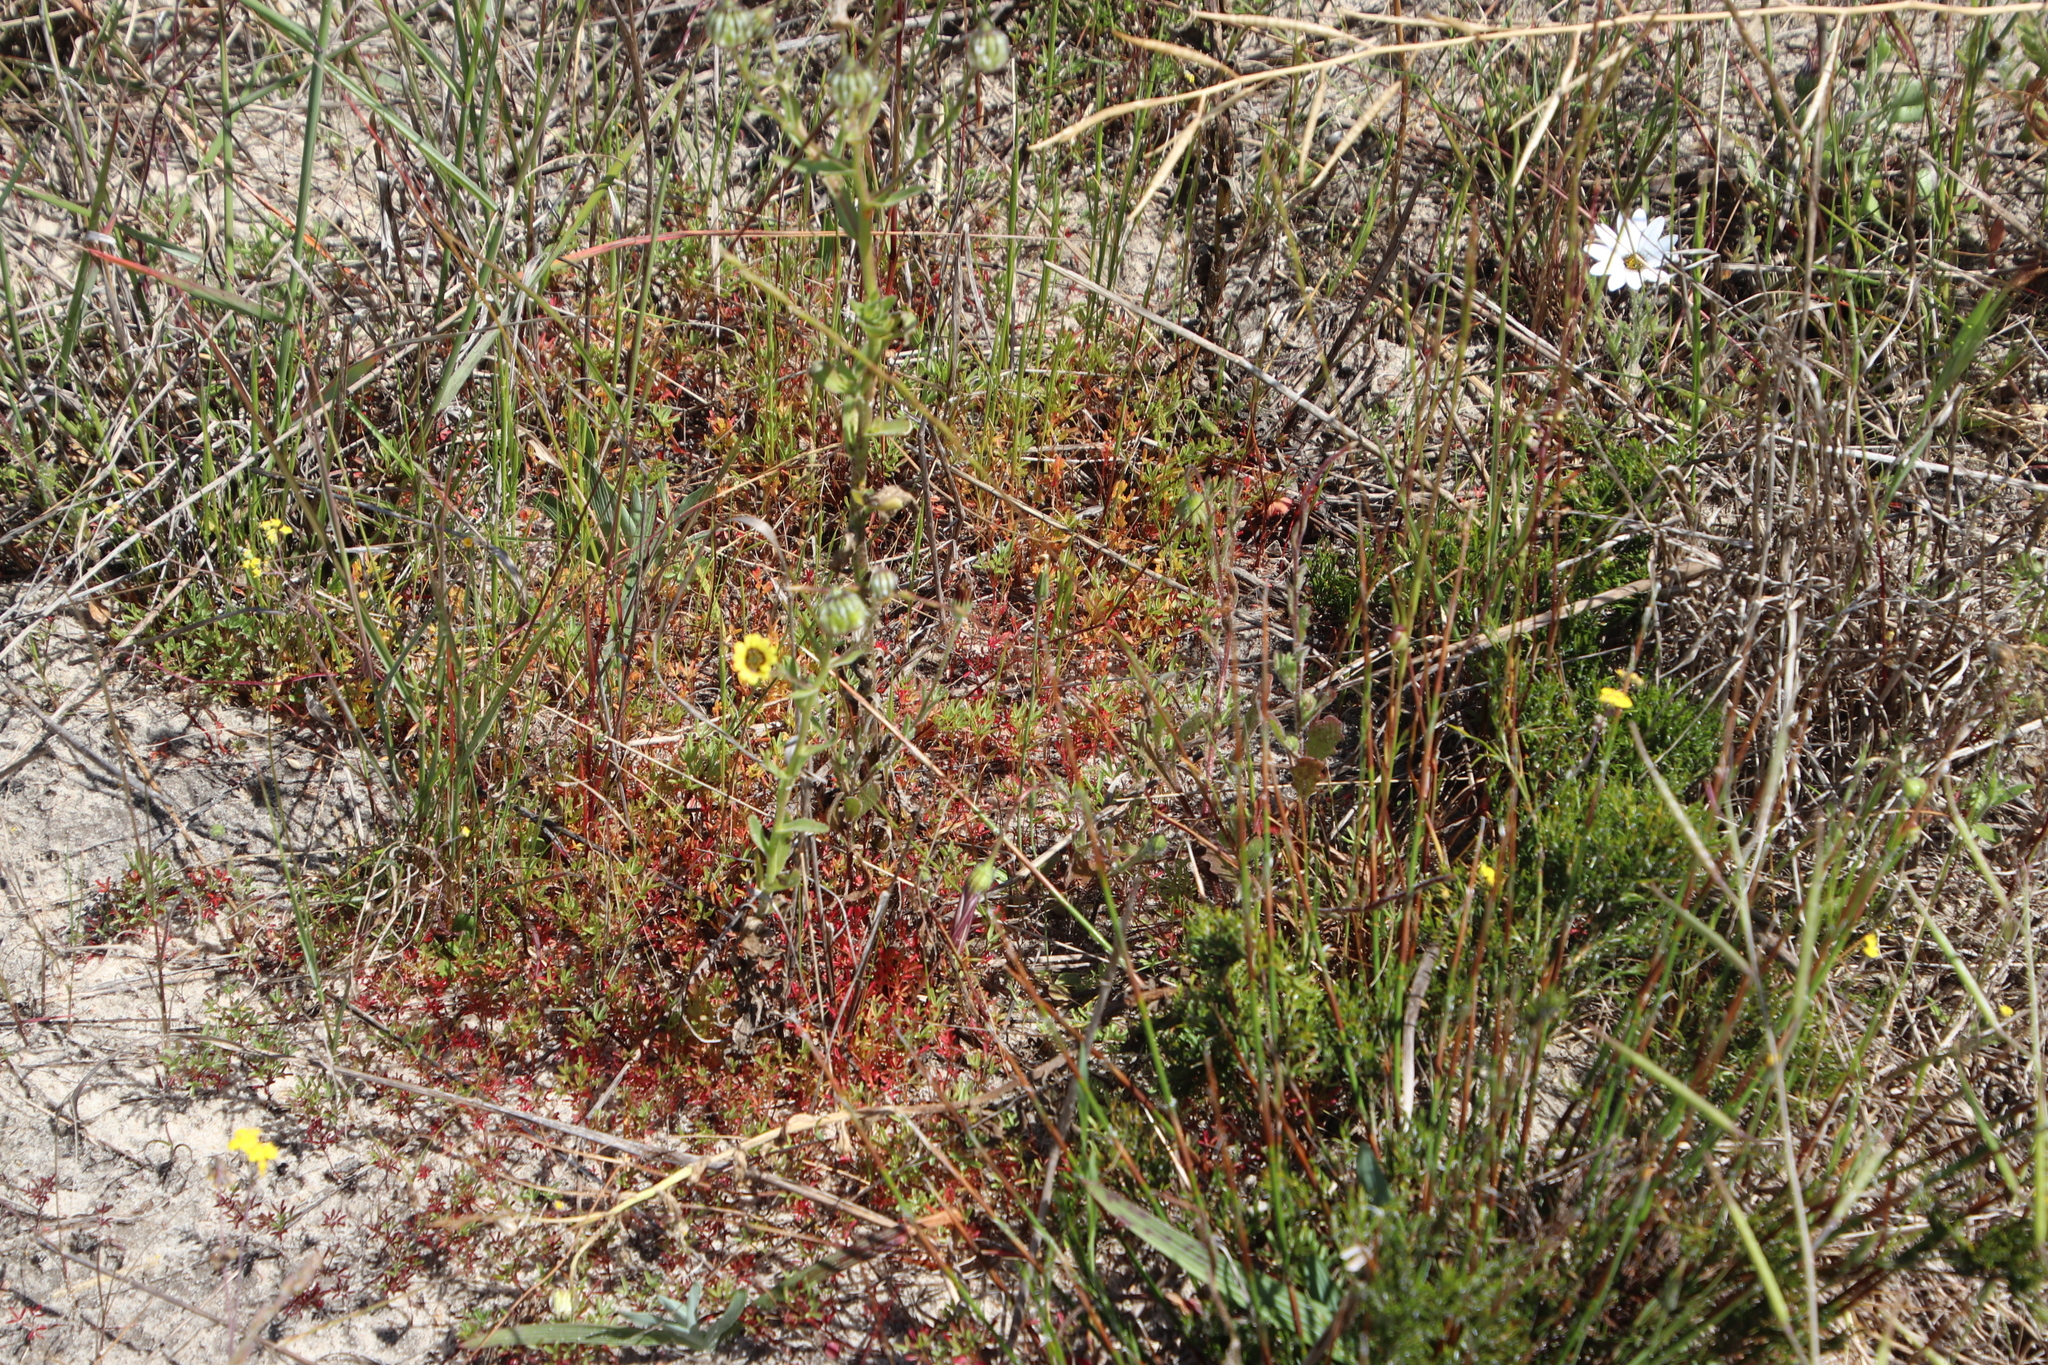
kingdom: Plantae
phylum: Tracheophyta
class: Magnoliopsida
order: Oxalidales
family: Oxalidaceae
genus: Oxalis
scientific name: Oxalis glabra
